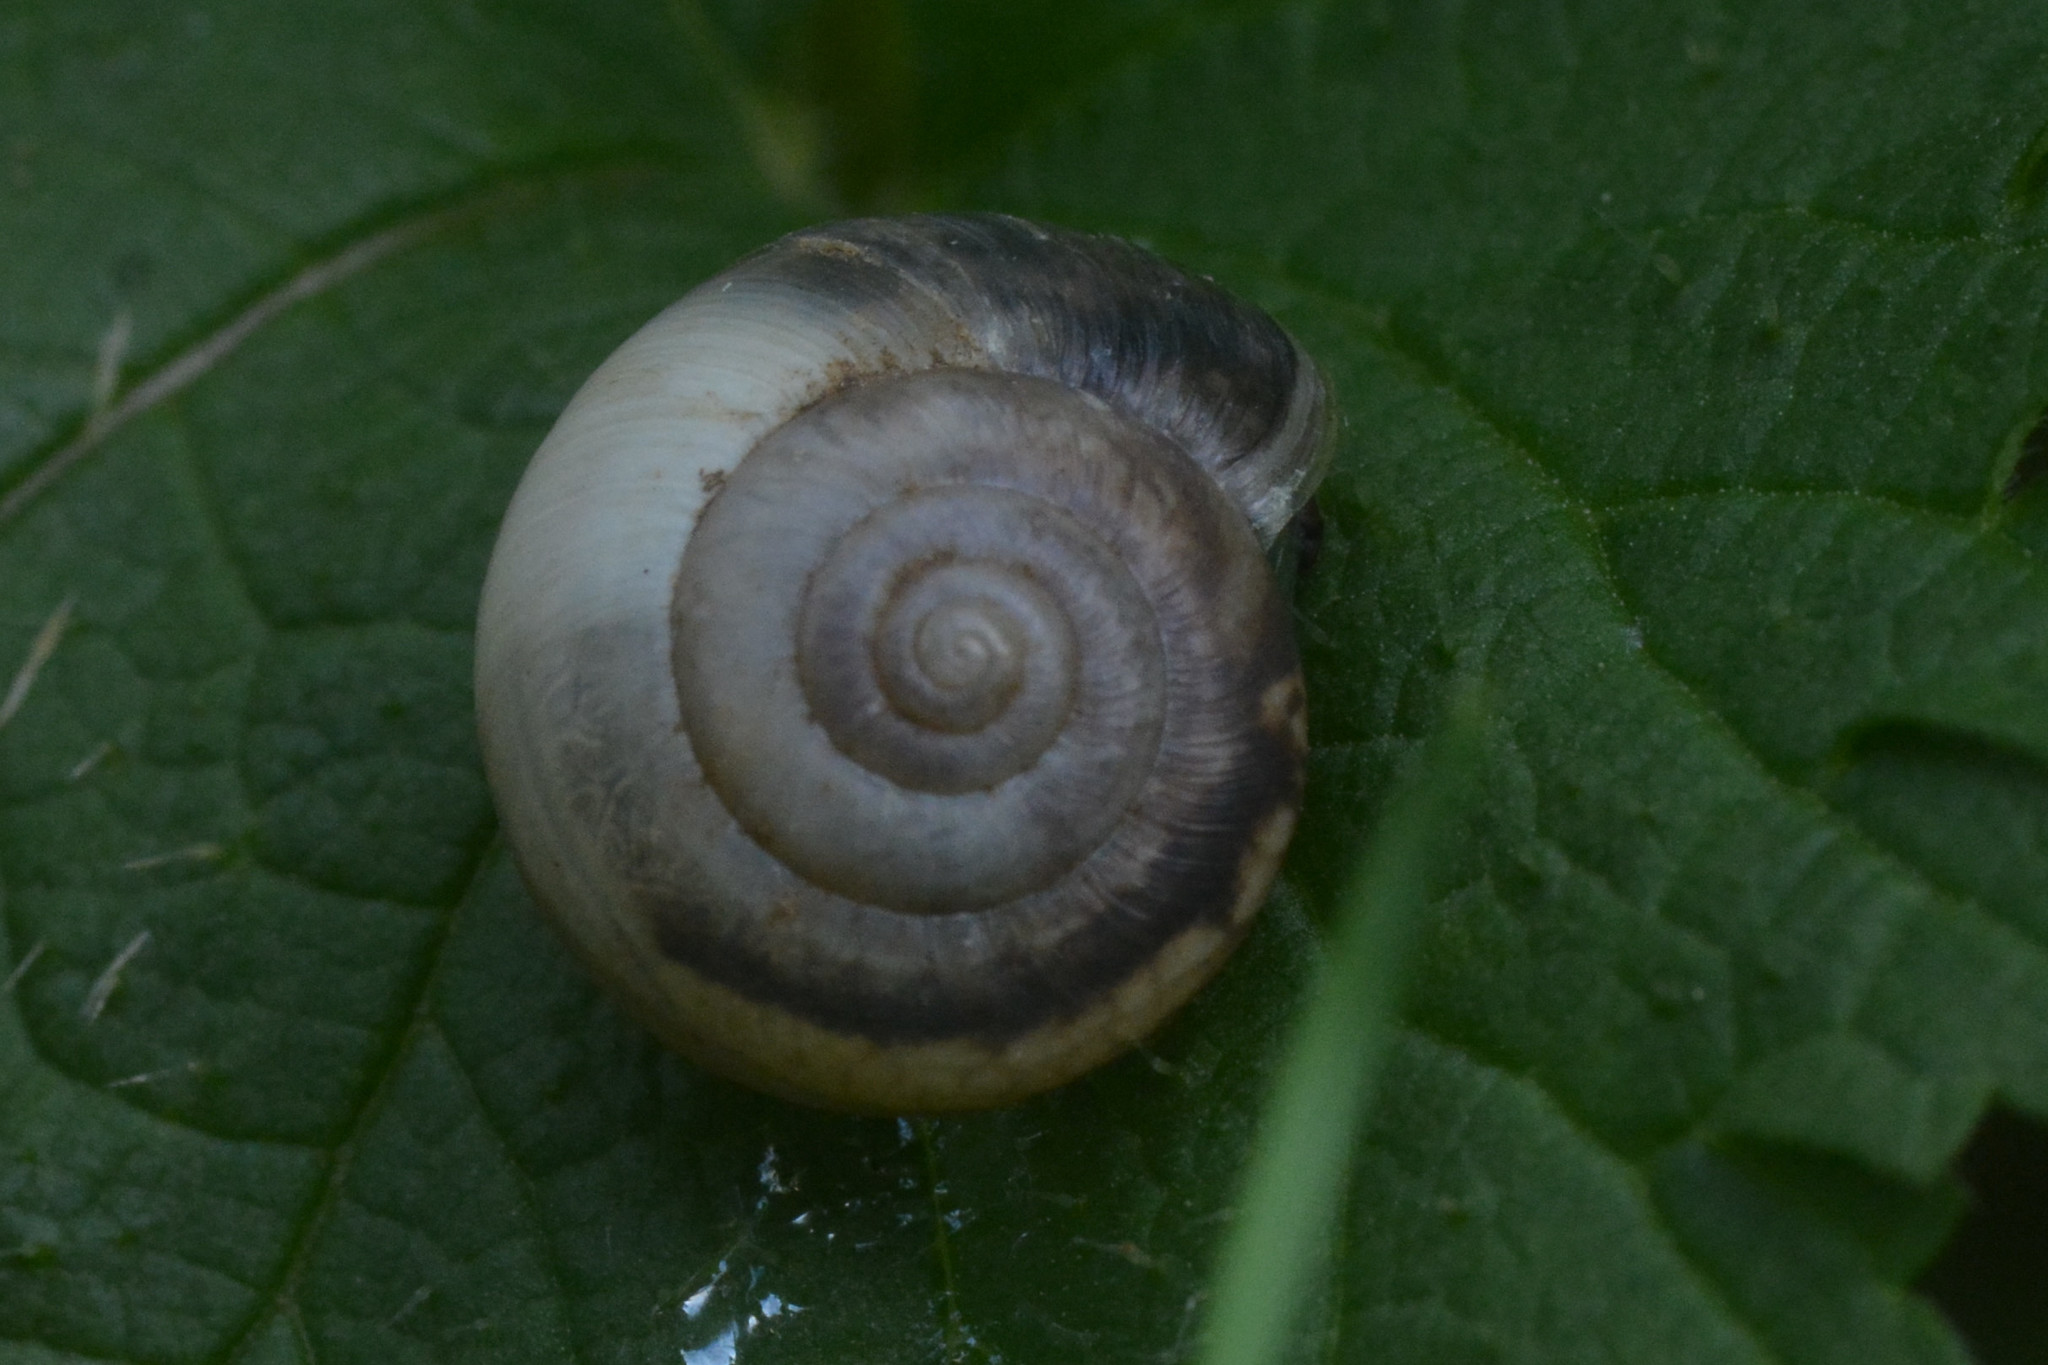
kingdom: Animalia
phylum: Mollusca
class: Gastropoda
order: Stylommatophora
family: Hygromiidae
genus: Monacha
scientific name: Monacha cantiana
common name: Kentish snail
